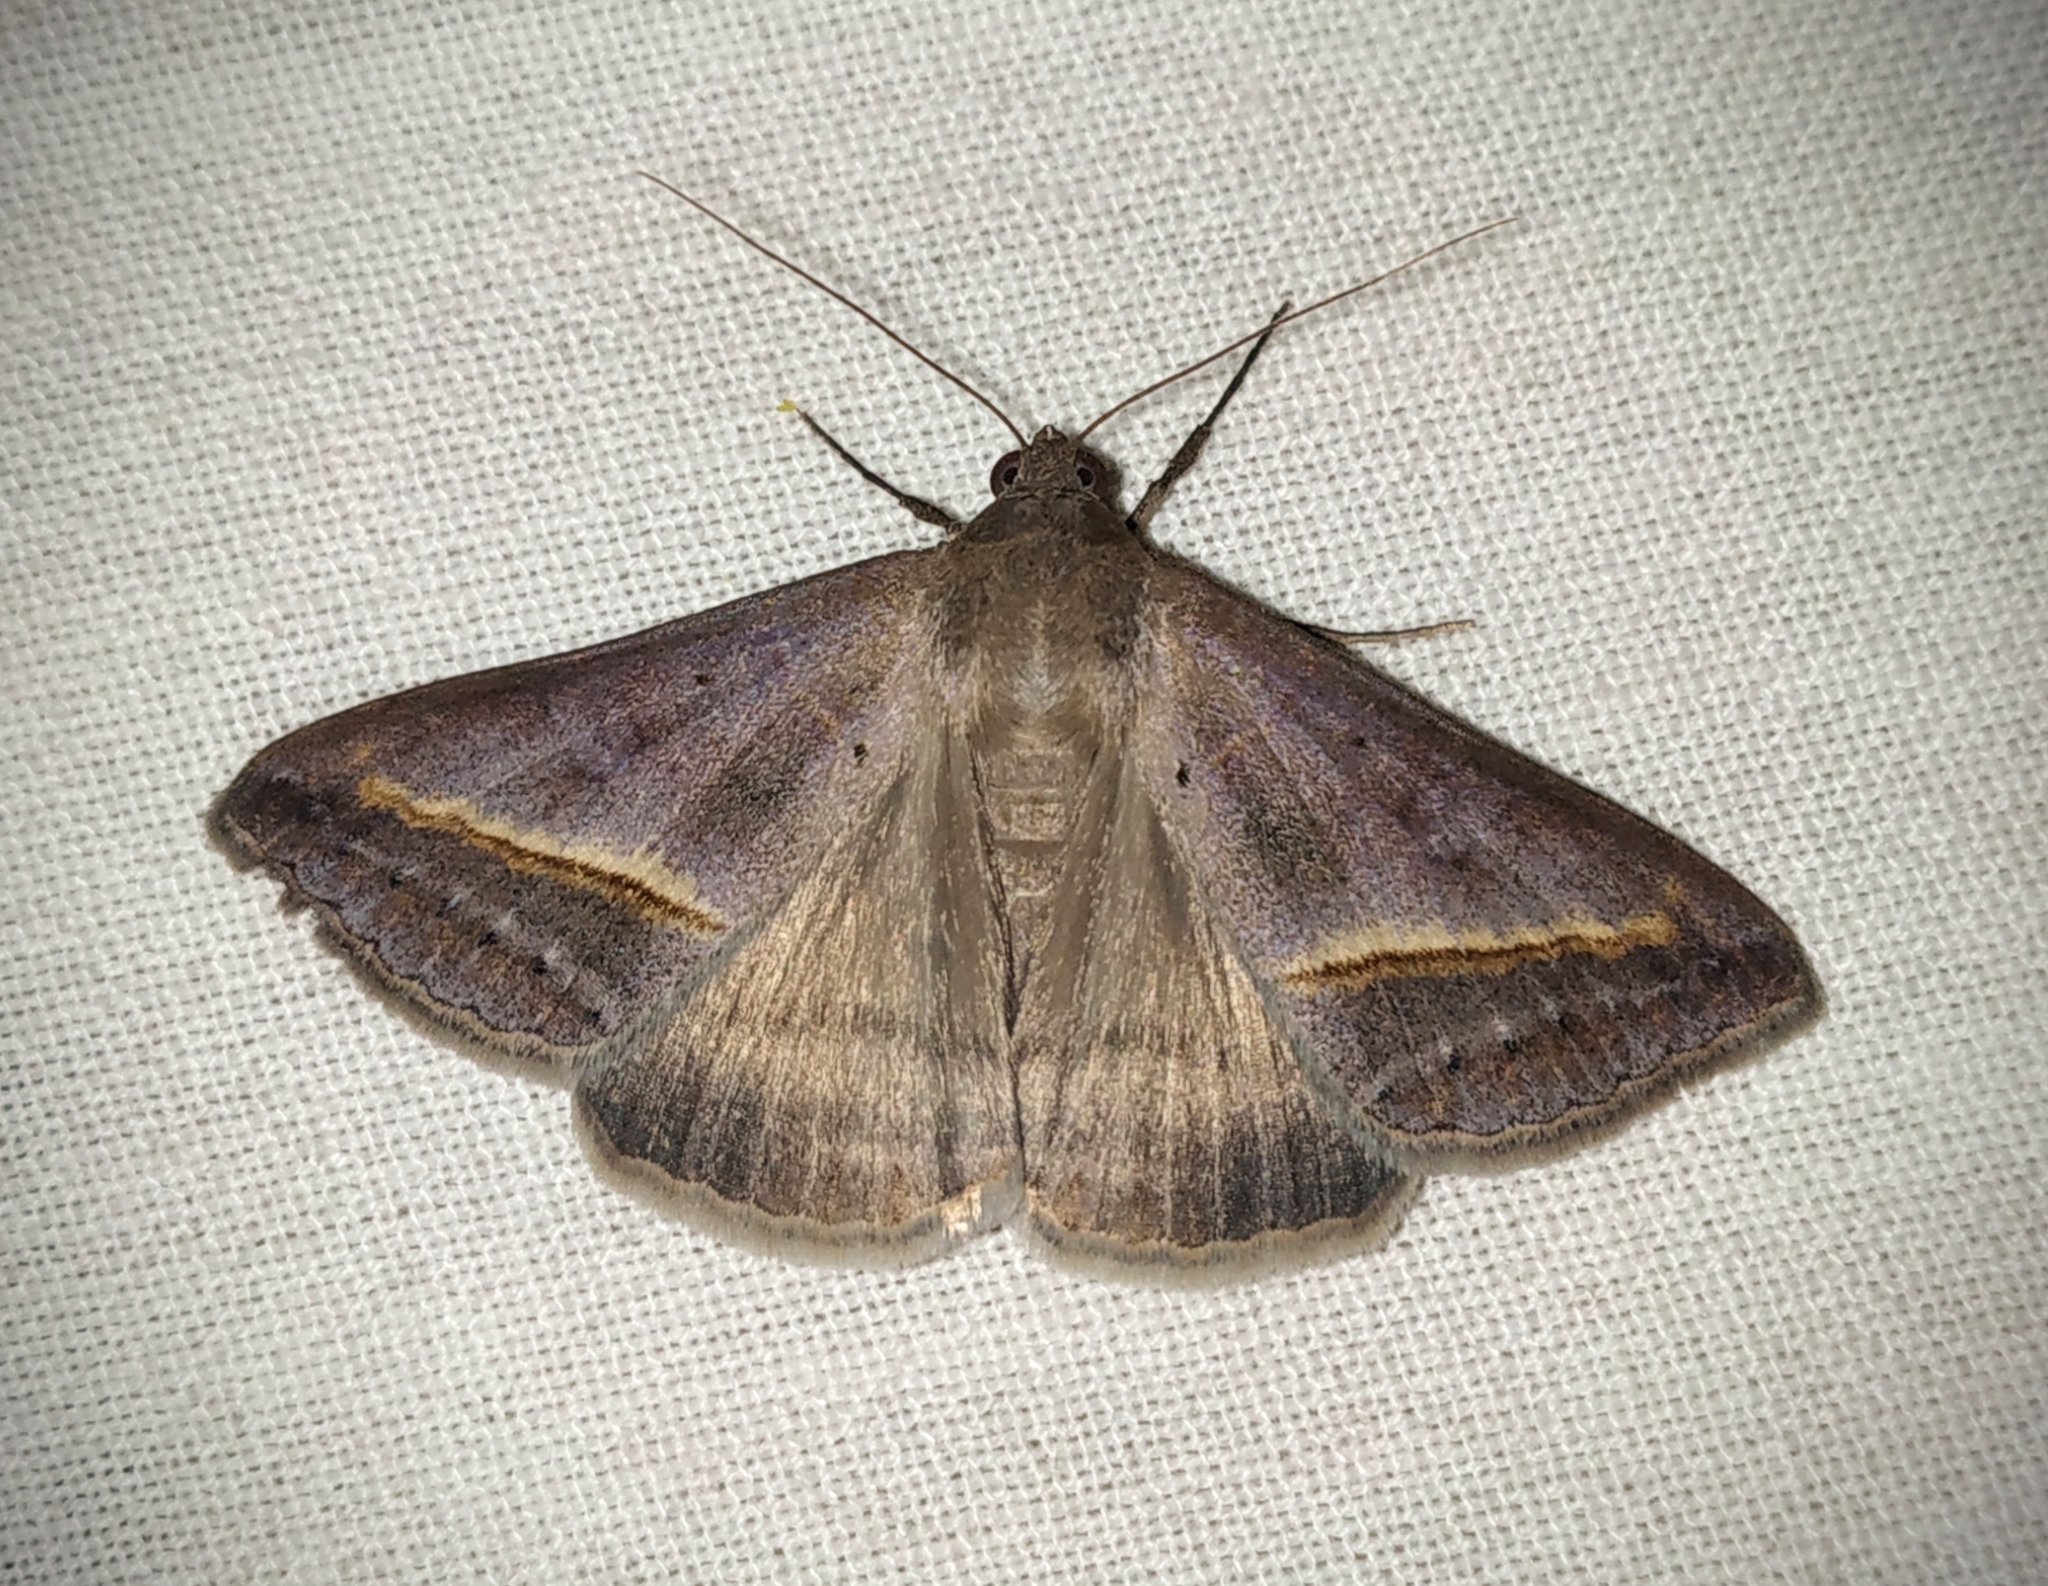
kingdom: Animalia
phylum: Arthropoda
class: Insecta
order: Lepidoptera
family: Erebidae
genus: Mocis
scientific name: Mocis frugalis
